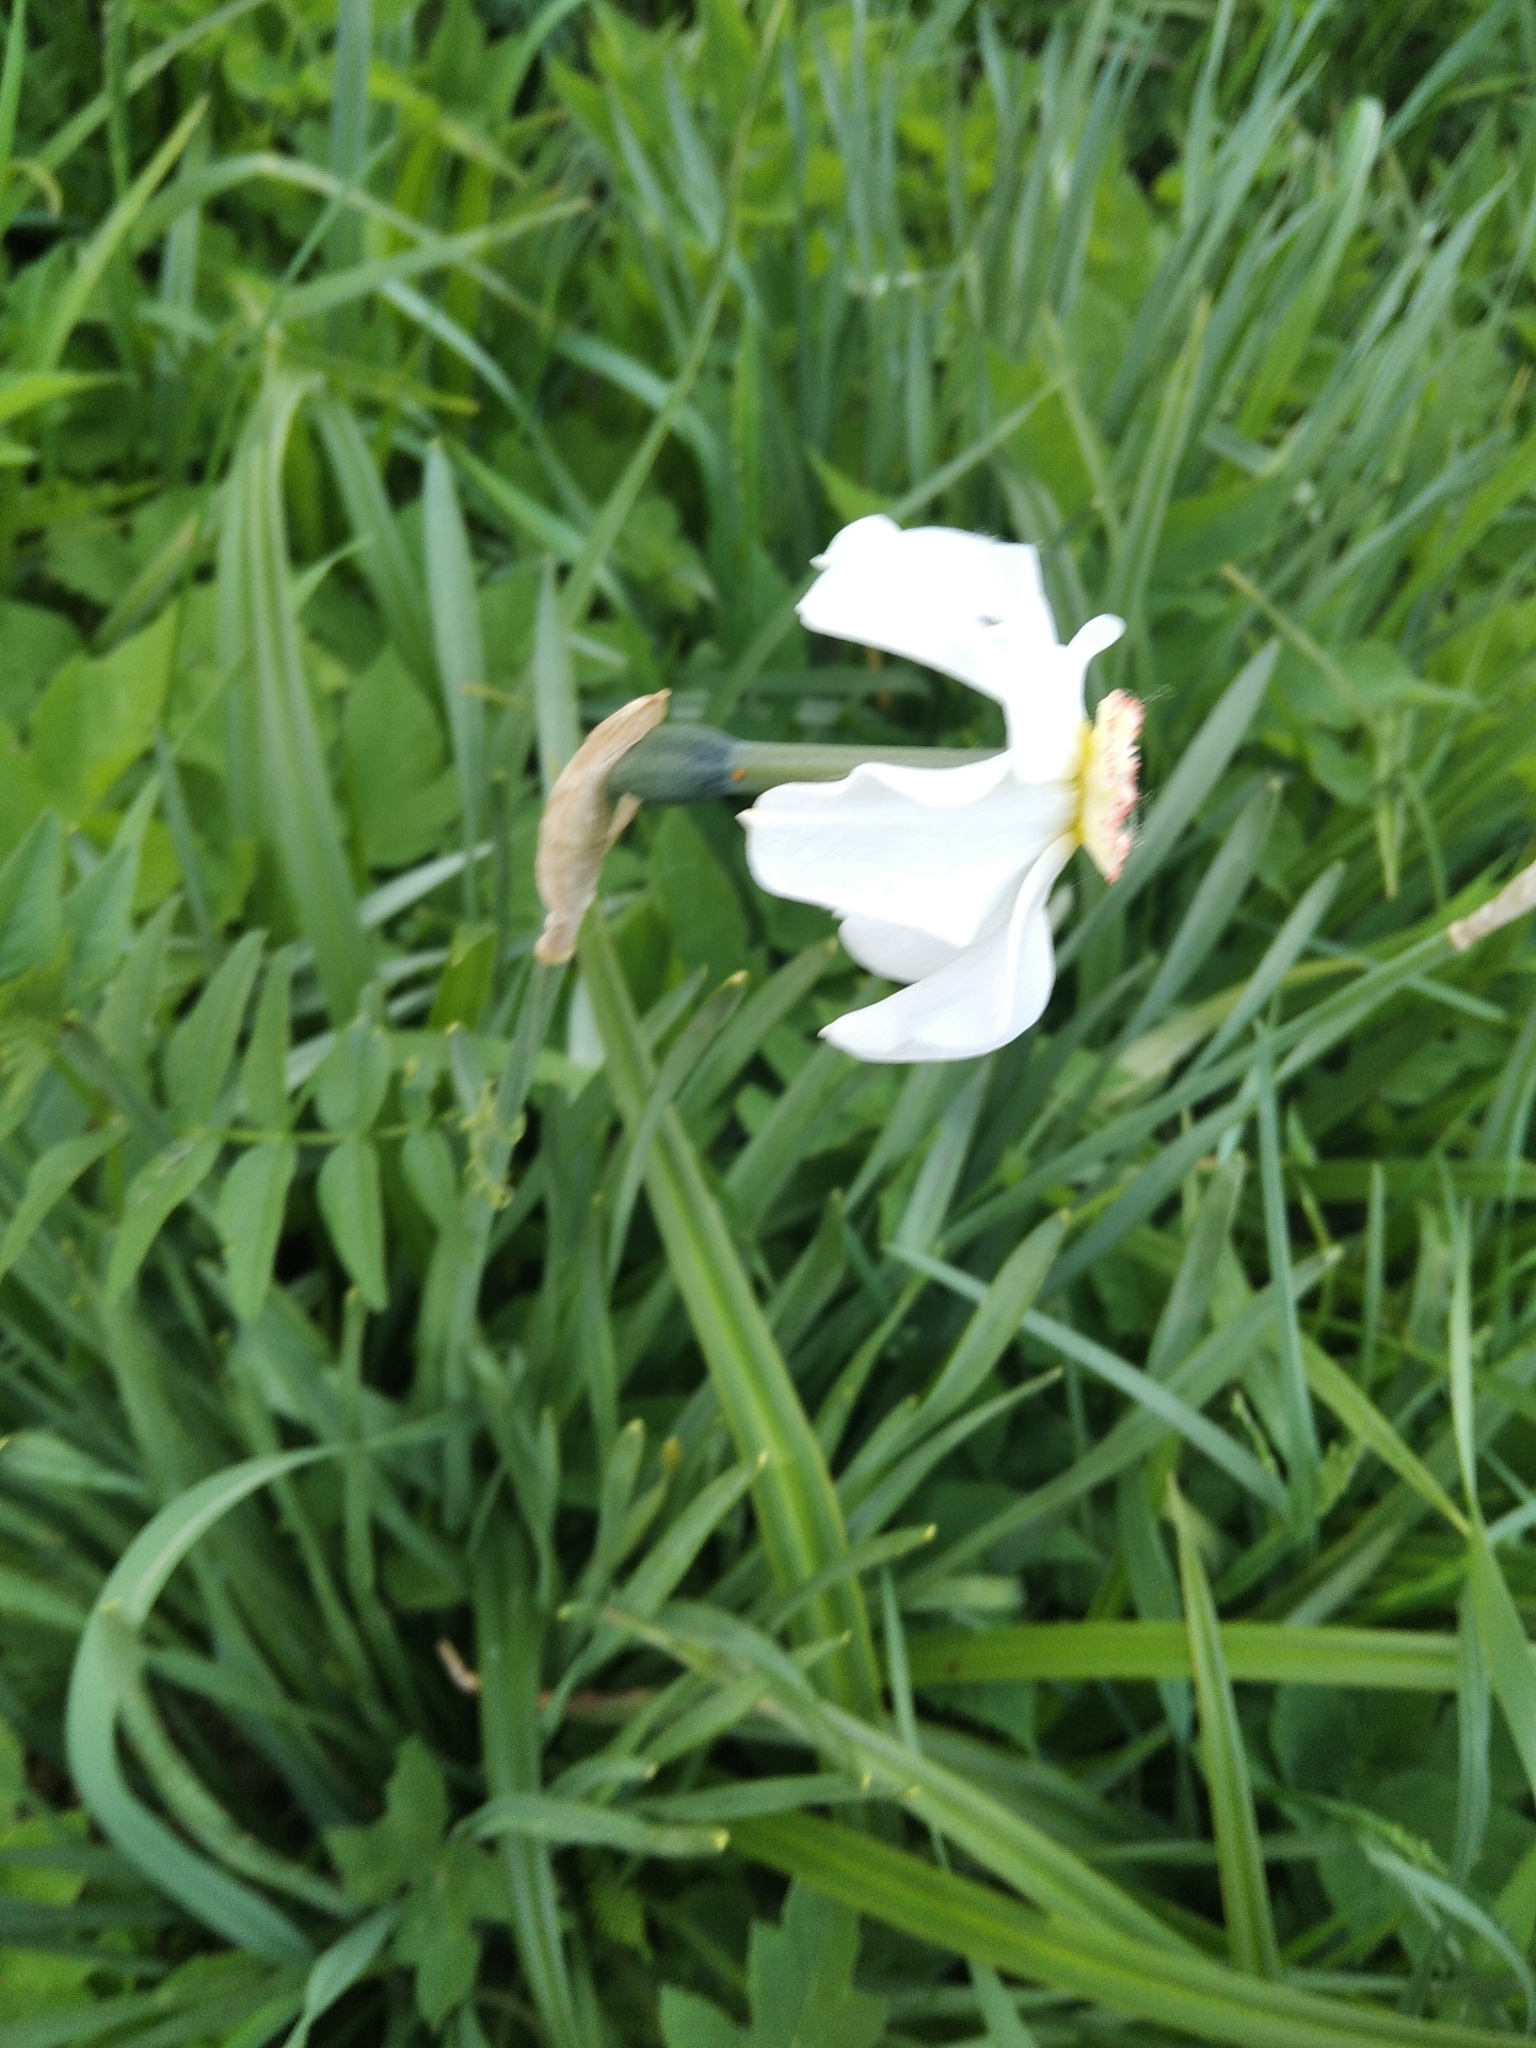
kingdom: Plantae
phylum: Tracheophyta
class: Liliopsida
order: Asparagales
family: Amaryllidaceae
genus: Narcissus
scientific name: Narcissus poeticus
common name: Pheasant's-eye daffodil
